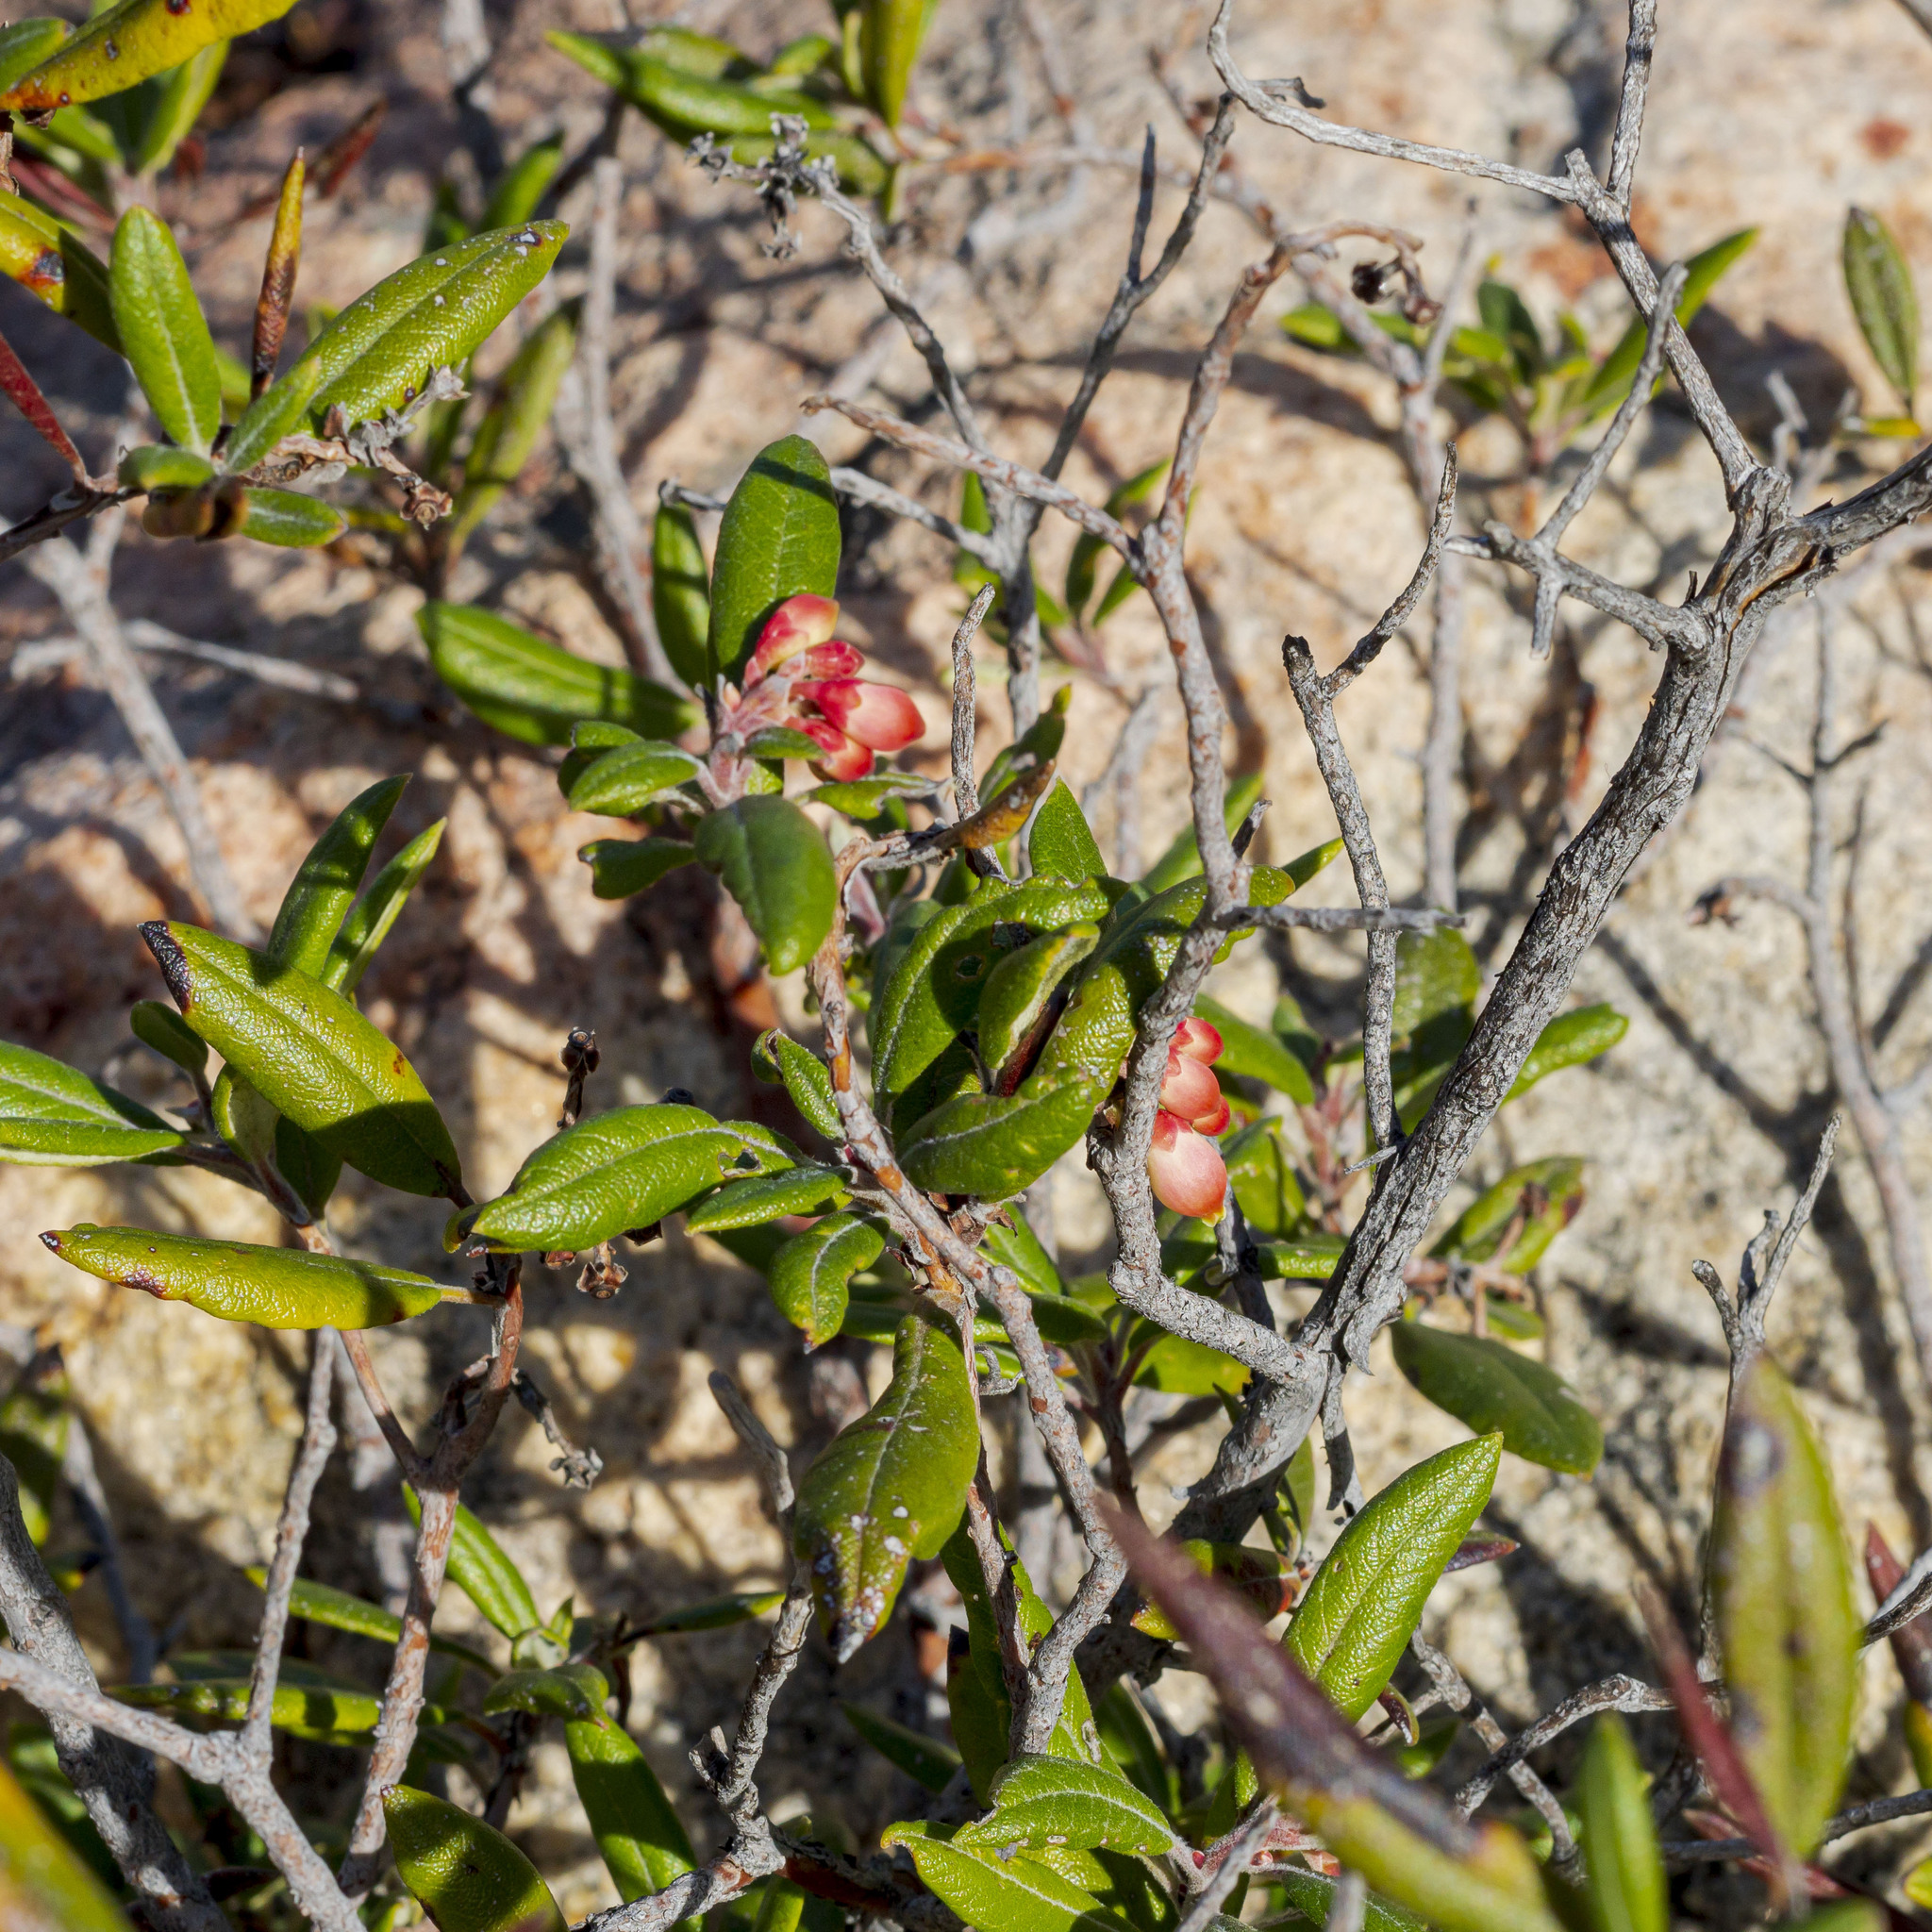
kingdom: Plantae
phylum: Tracheophyta
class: Magnoliopsida
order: Ericales
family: Ericaceae
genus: Arctostaphylos
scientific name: Arctostaphylos bicolor
